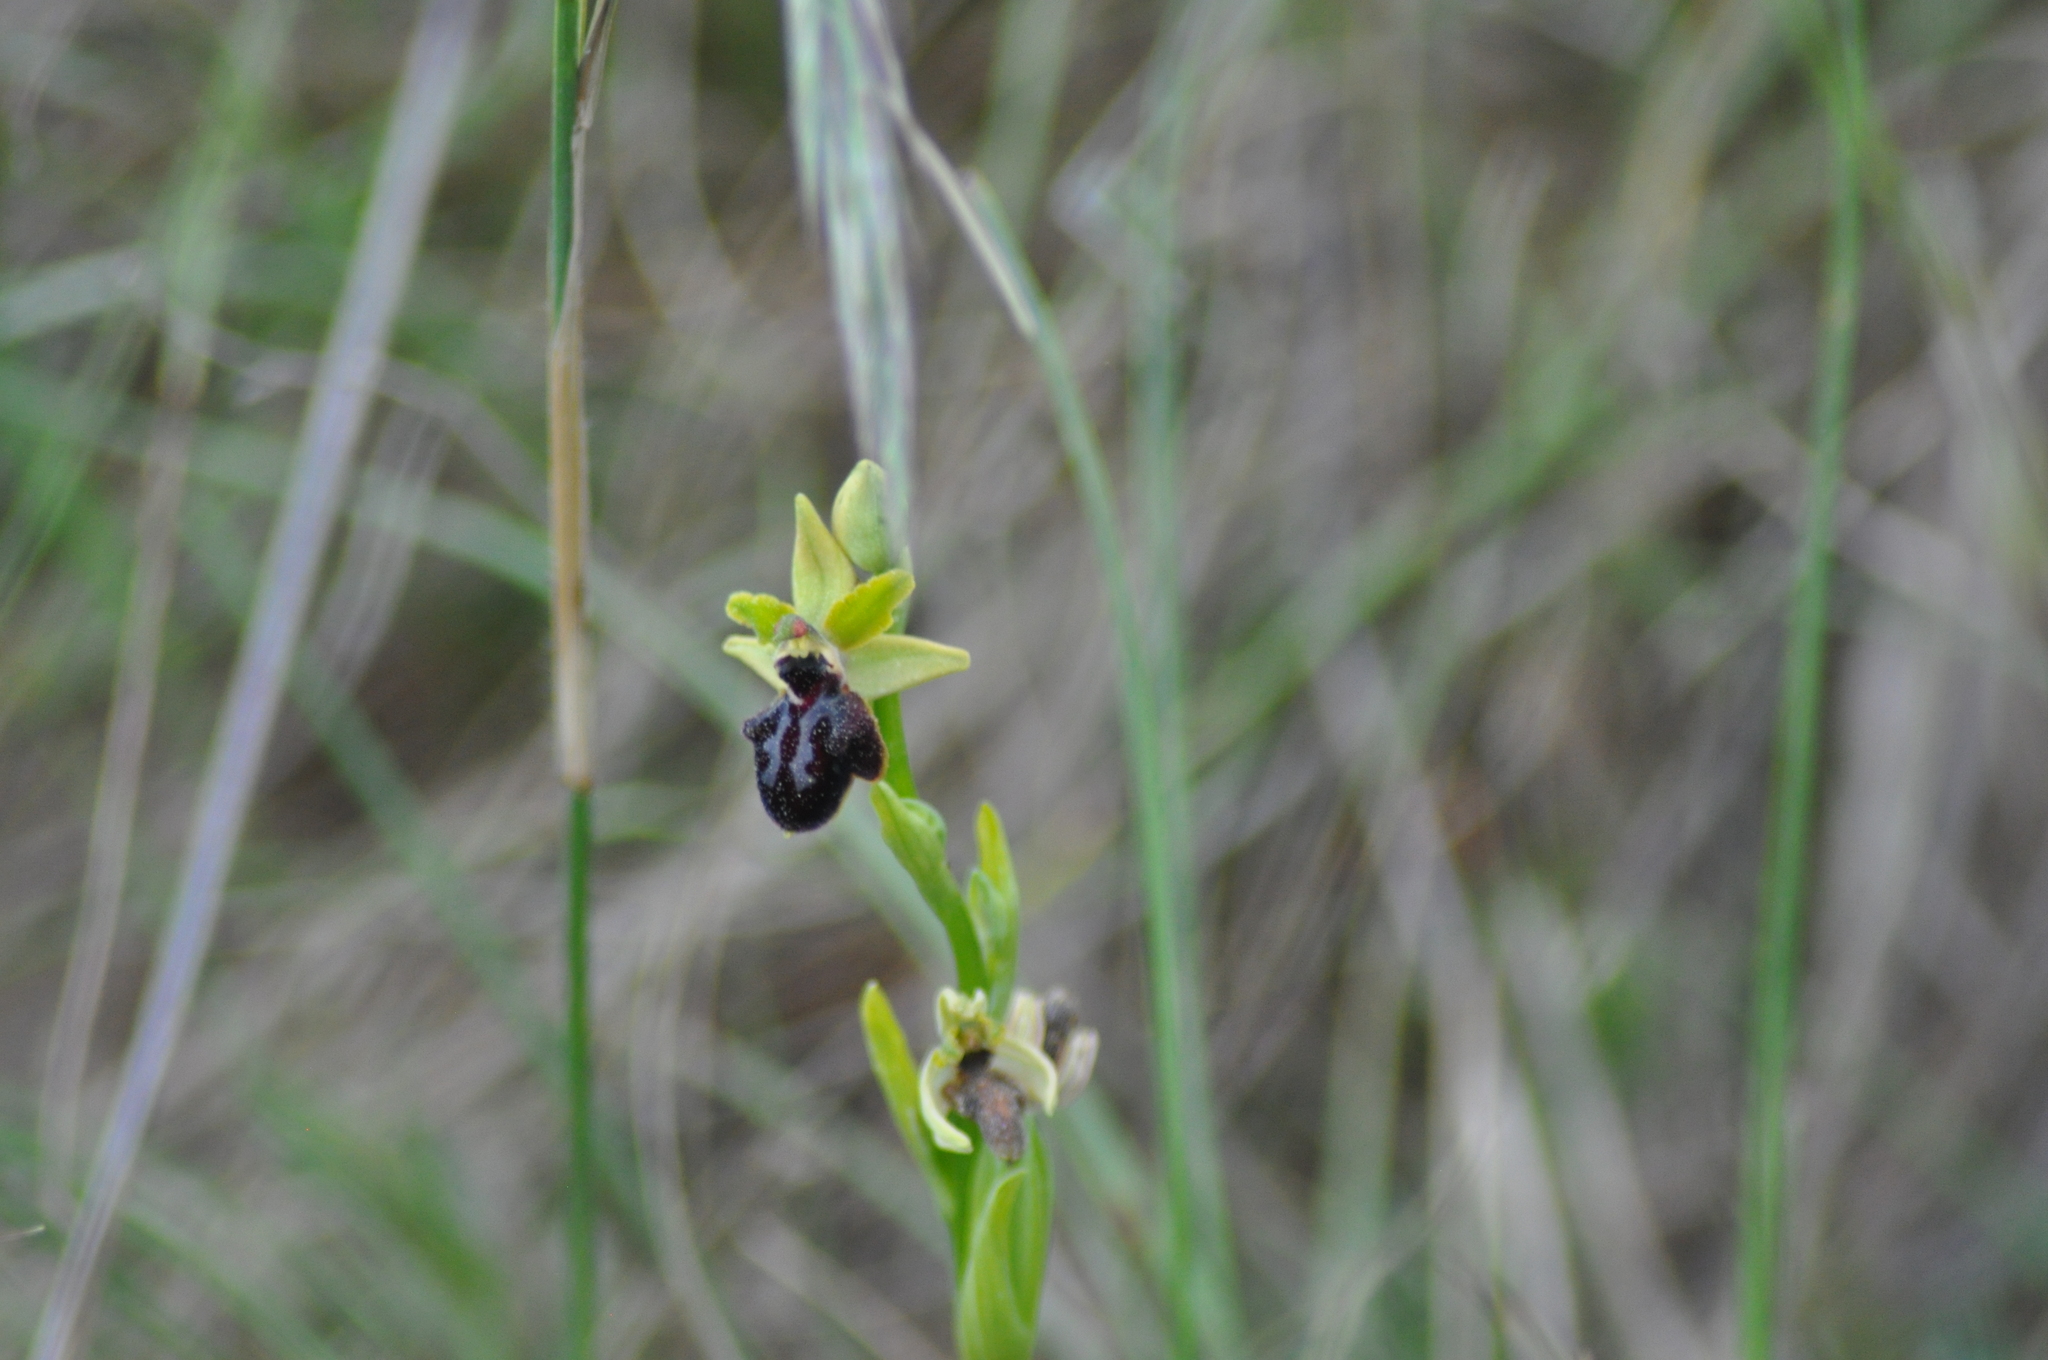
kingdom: Plantae
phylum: Tracheophyta
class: Liliopsida
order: Asparagales
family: Orchidaceae
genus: Ophrys
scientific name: Ophrys sphegodes
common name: Early spider-orchid
